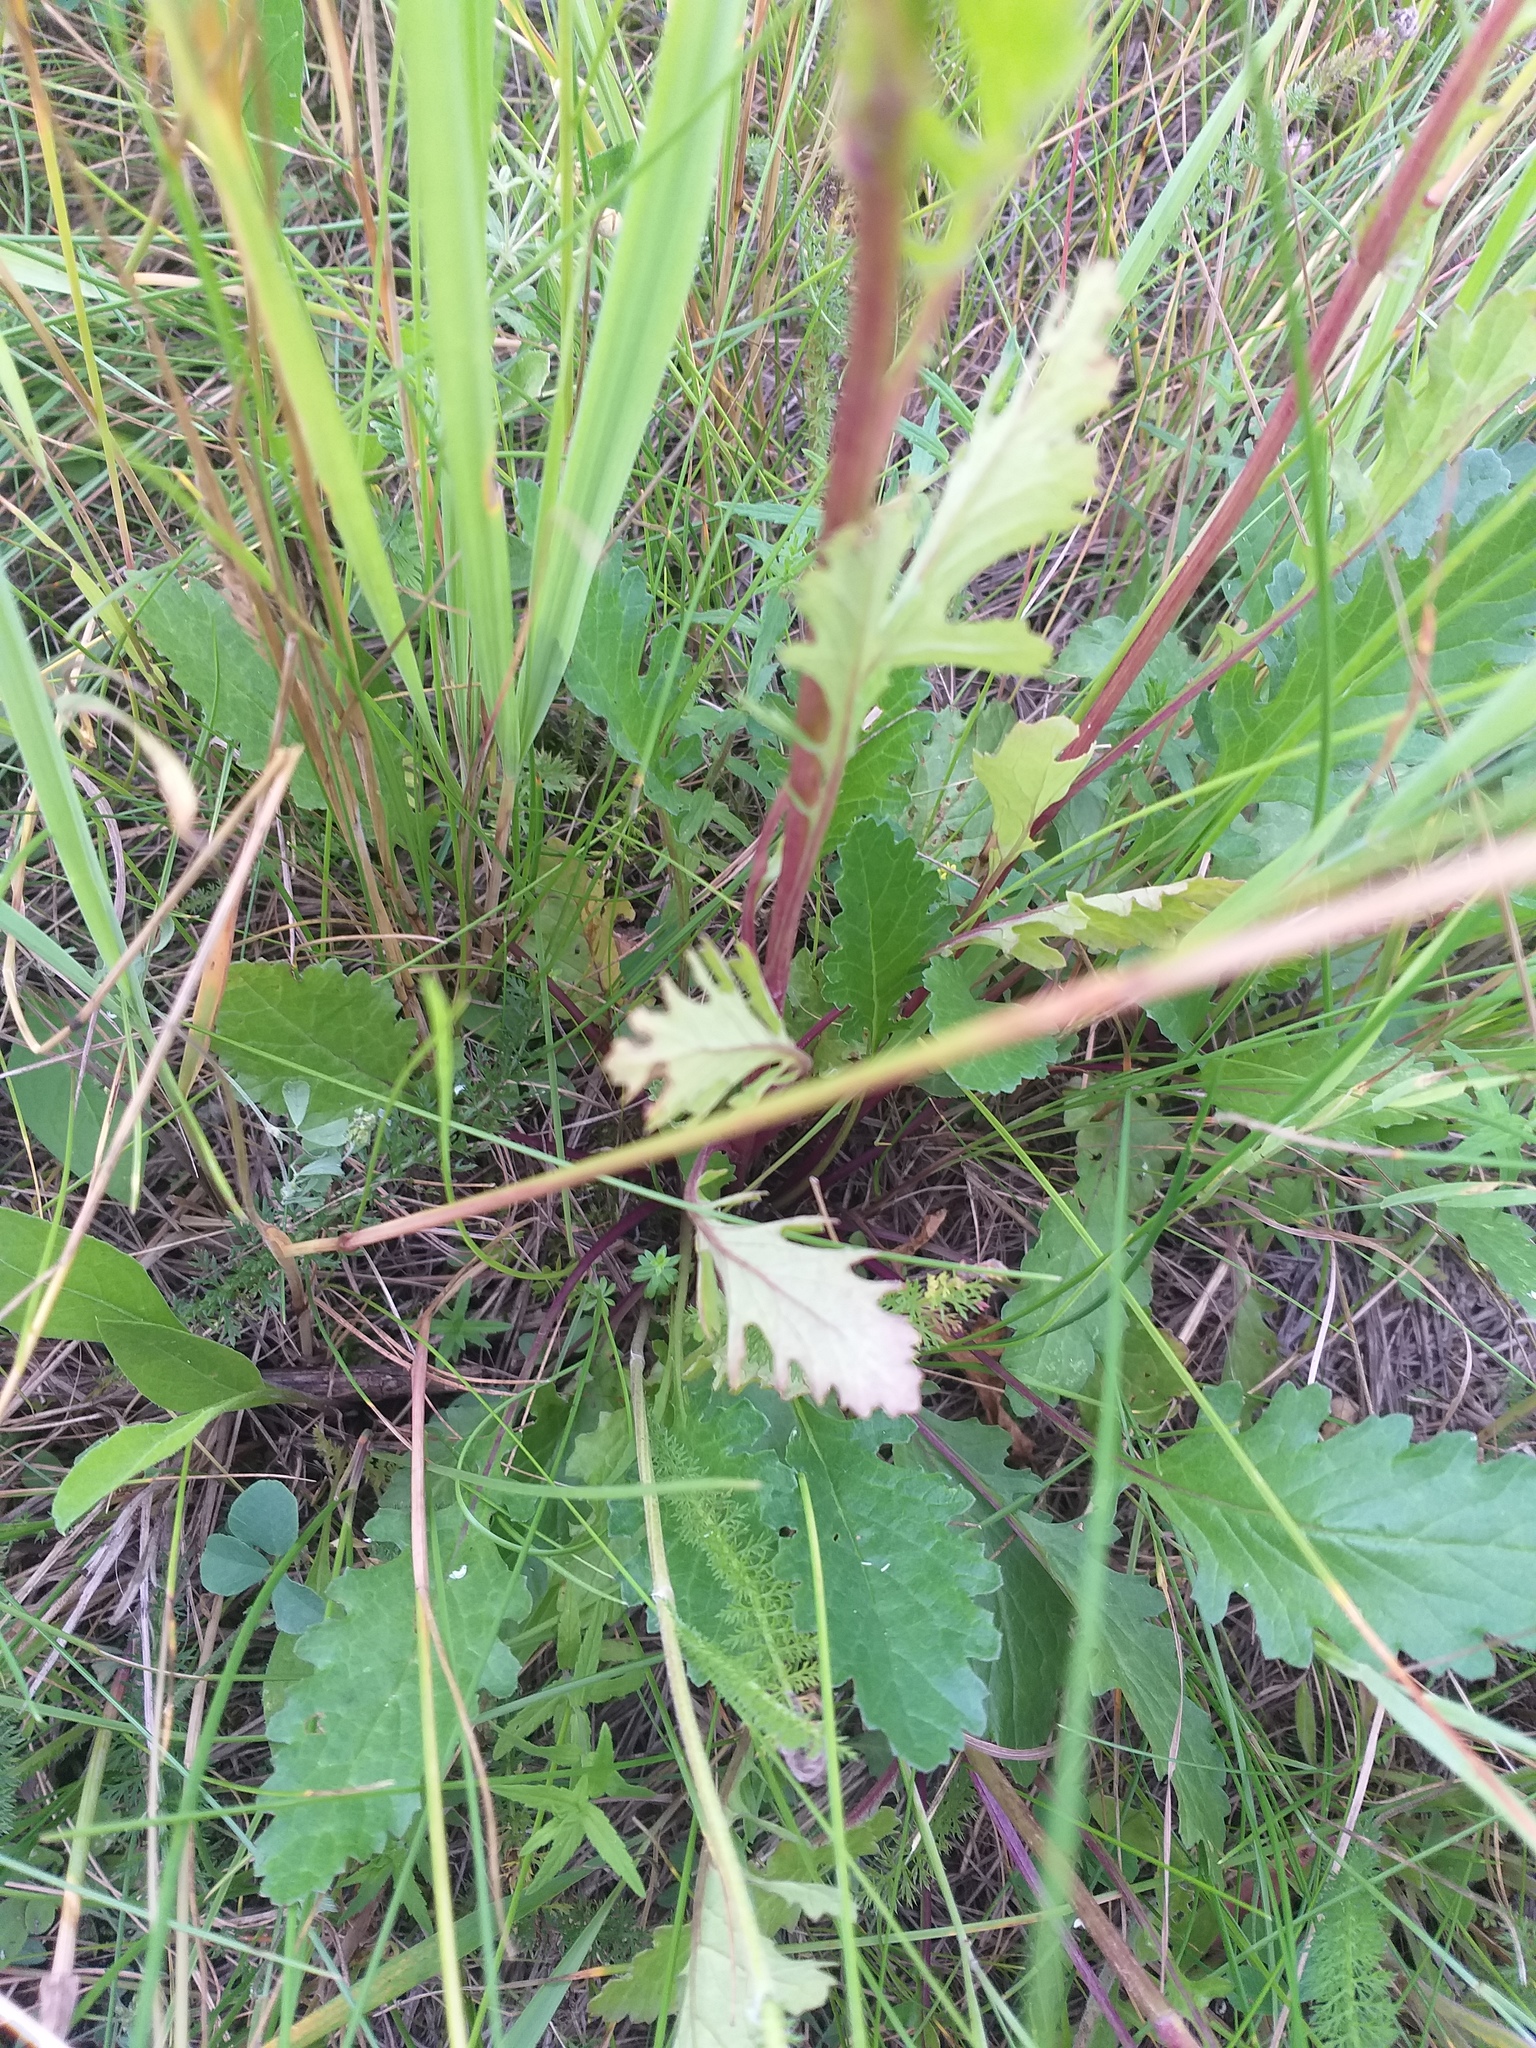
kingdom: Plantae
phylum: Tracheophyta
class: Magnoliopsida
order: Asterales
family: Asteraceae
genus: Jacobaea
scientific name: Jacobaea vulgaris
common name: Stinking willie
